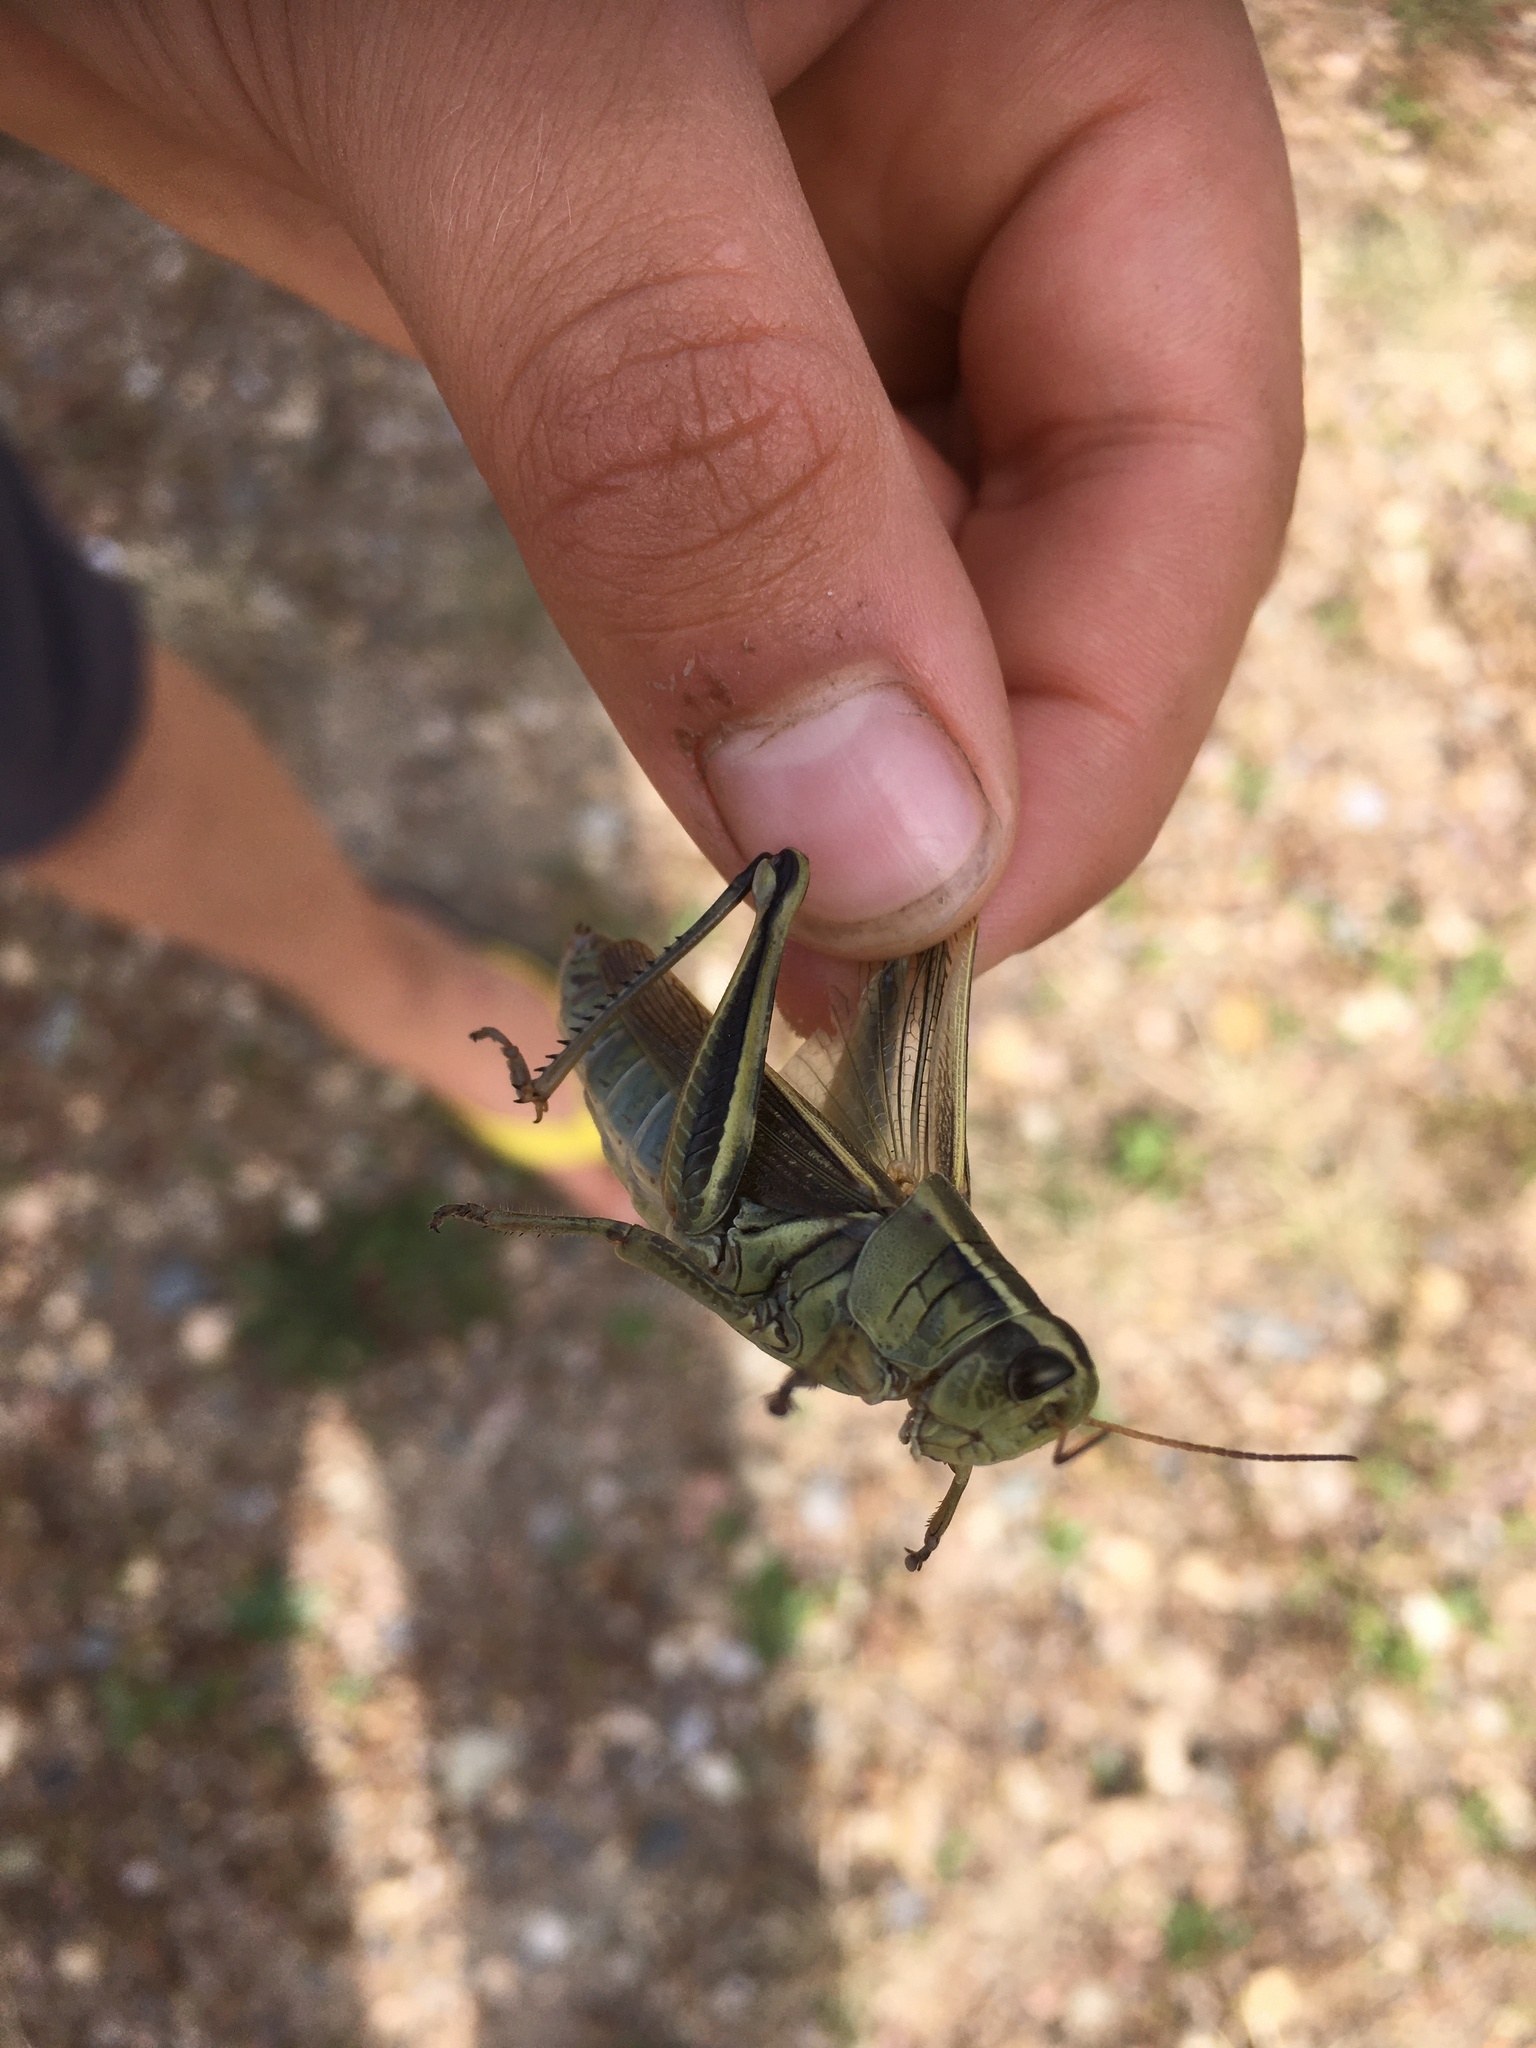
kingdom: Animalia
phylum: Arthropoda
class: Insecta
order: Orthoptera
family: Acrididae
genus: Melanoplus
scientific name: Melanoplus bivittatus
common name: Two-striped grasshopper
